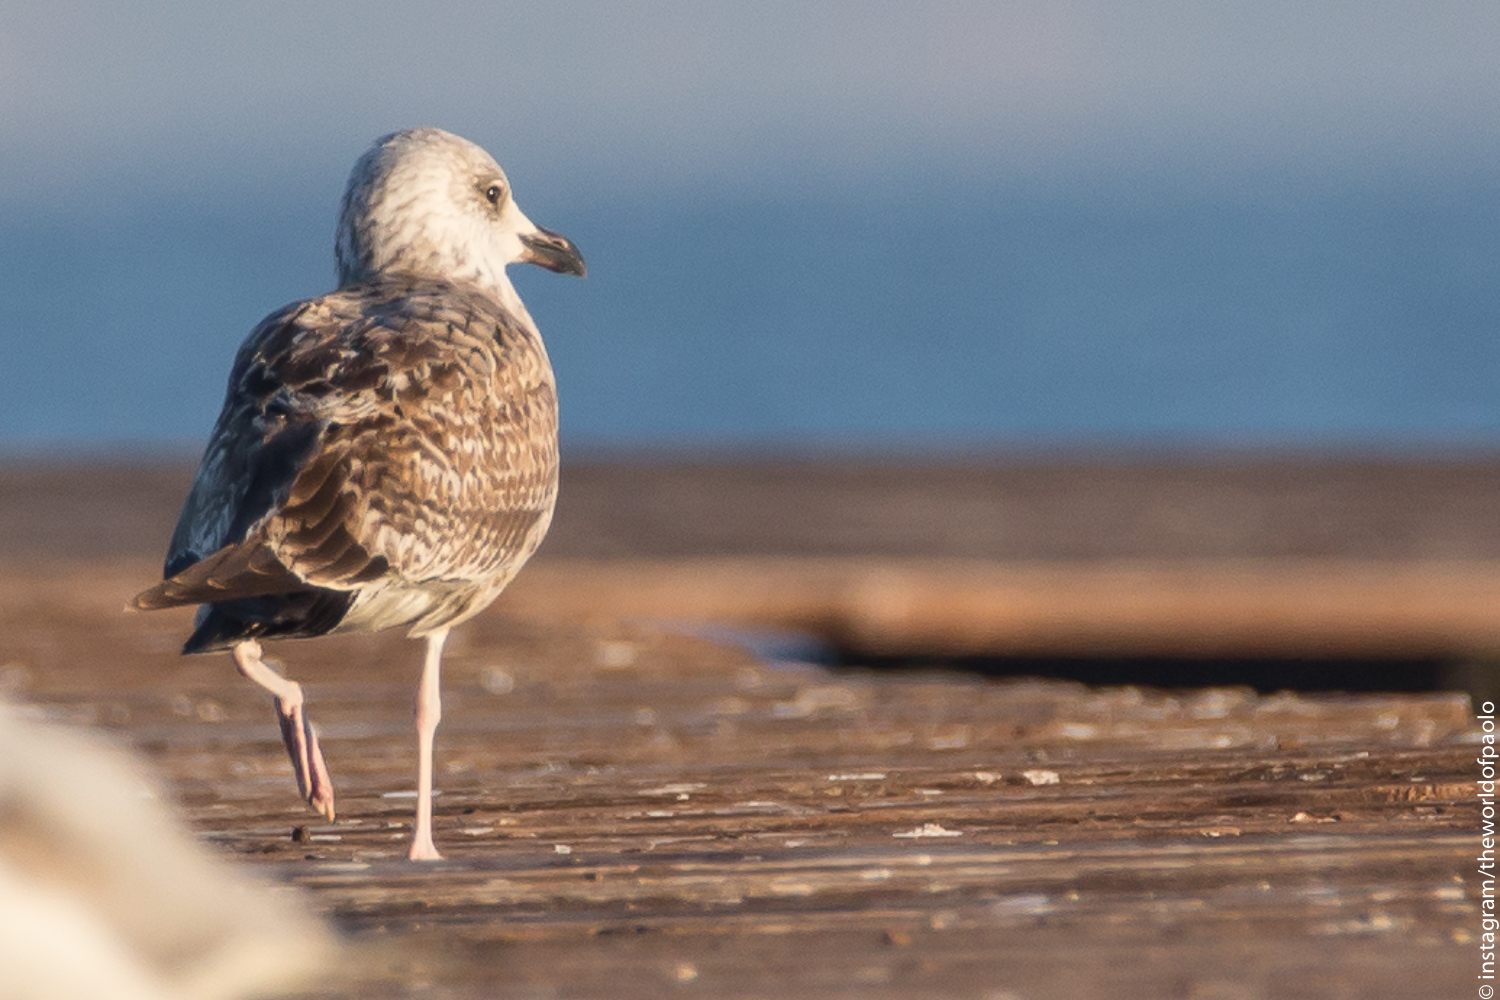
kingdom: Animalia
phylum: Chordata
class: Aves
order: Charadriiformes
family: Laridae
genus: Larus
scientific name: Larus michahellis
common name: Yellow-legged gull
